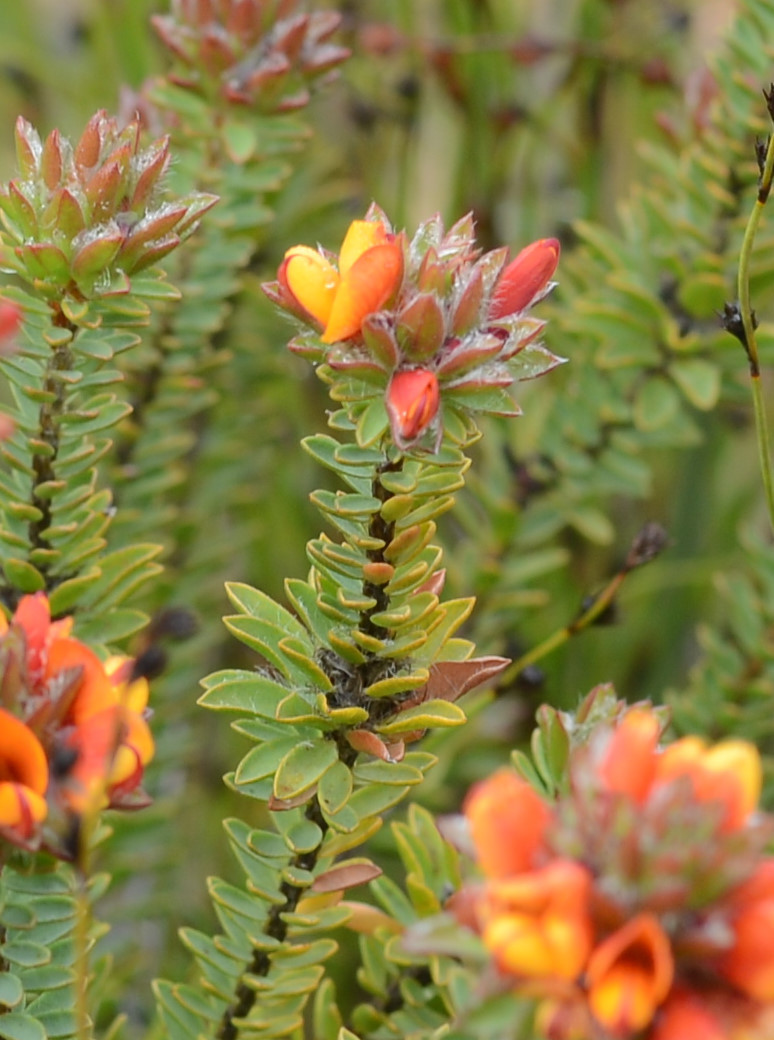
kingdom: Plantae
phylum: Tracheophyta
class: Magnoliopsida
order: Fabales
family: Fabaceae
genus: Pultenaea
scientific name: Pultenaea tuberculata
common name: Wreath bush-pea
